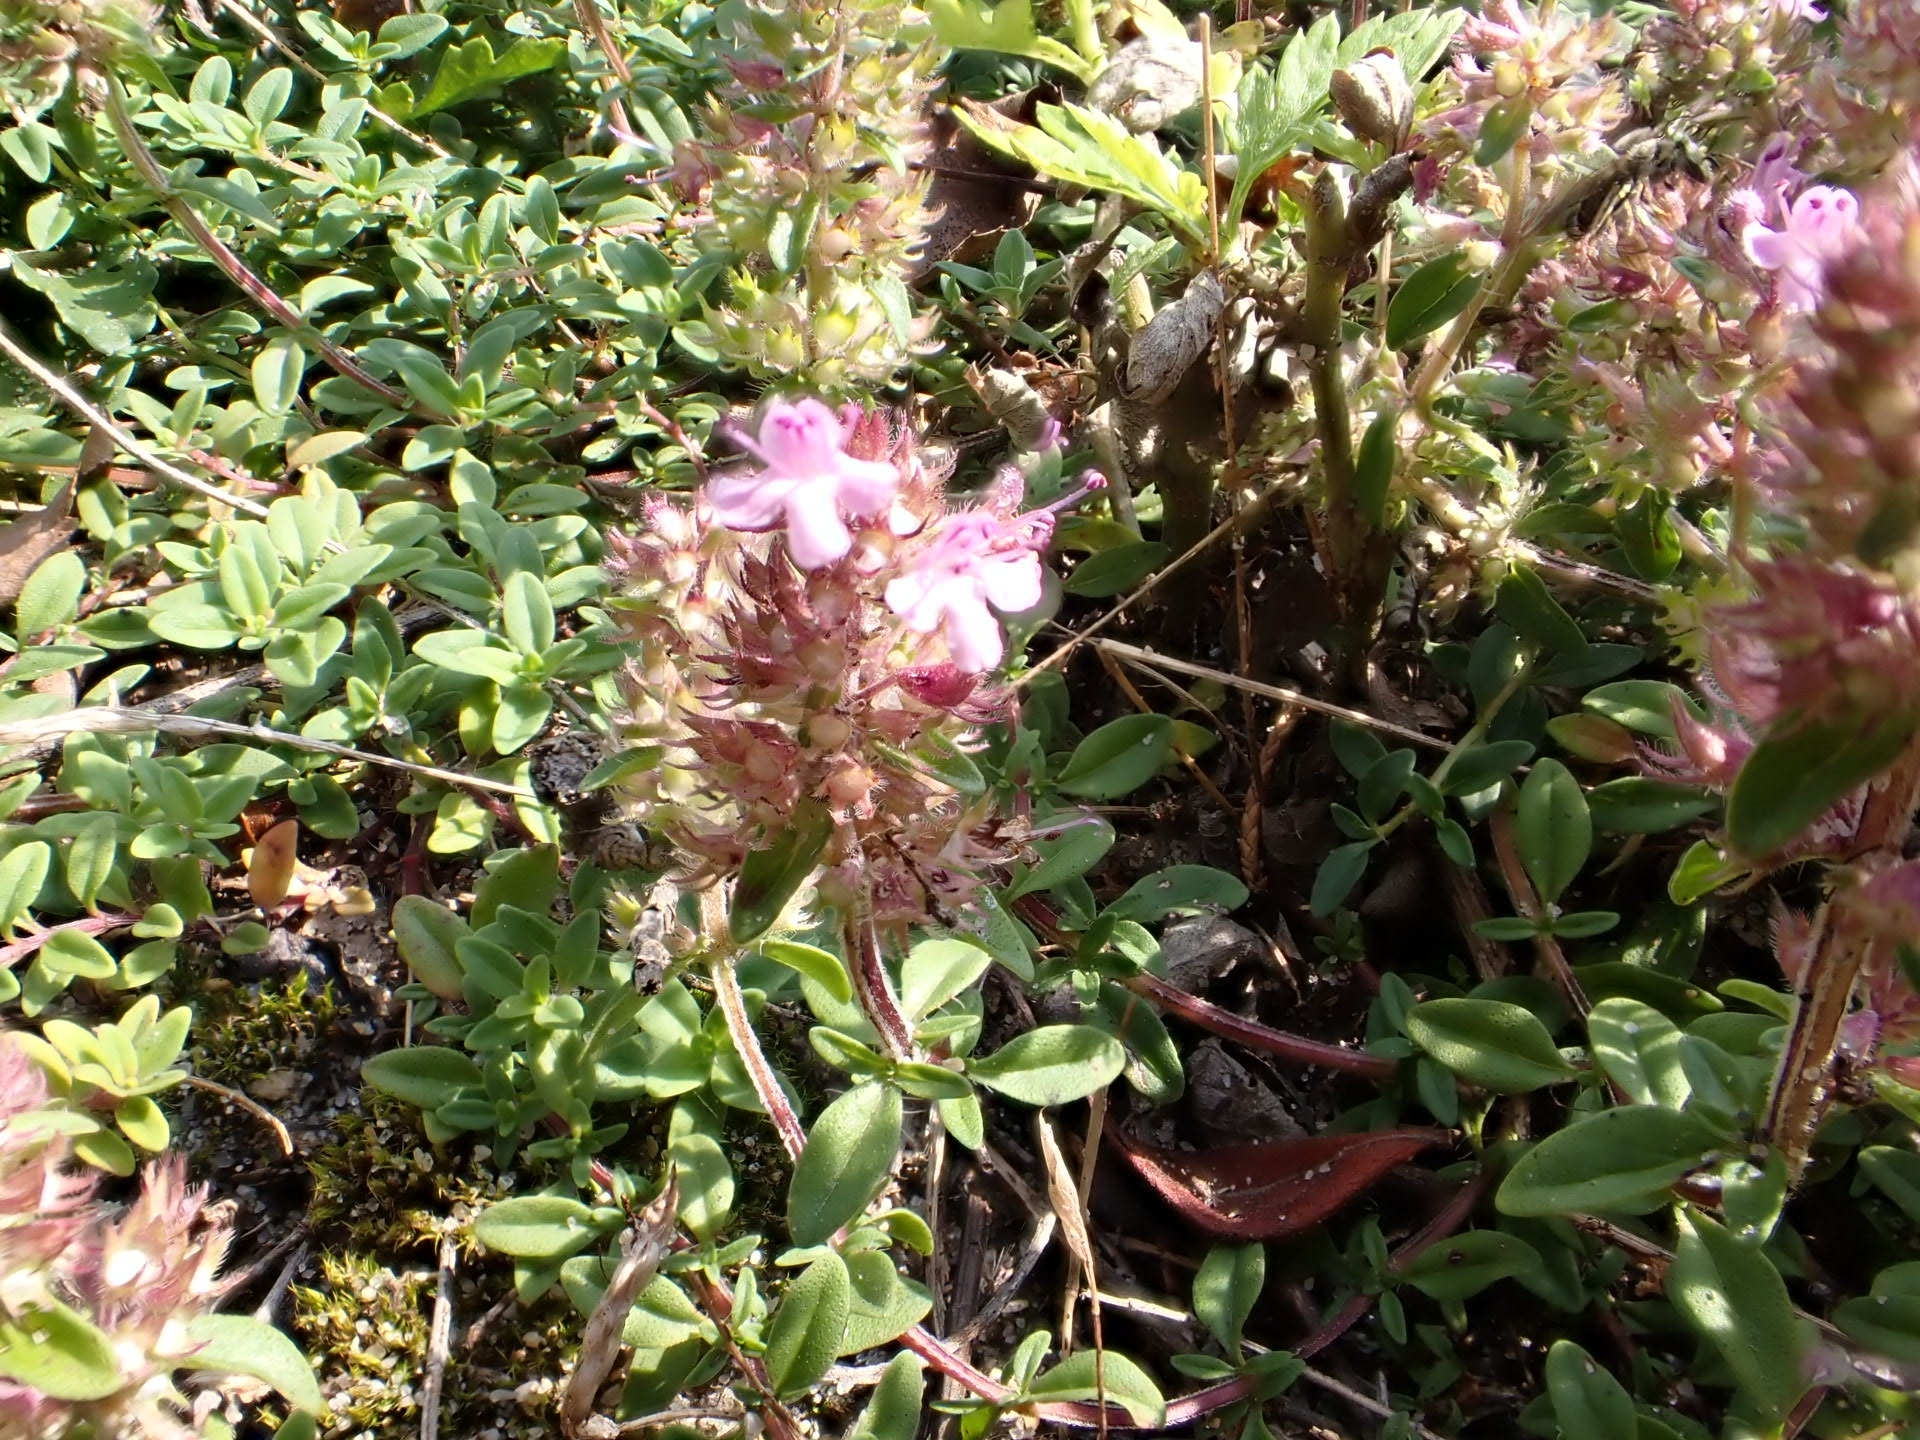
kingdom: Plantae
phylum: Tracheophyta
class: Magnoliopsida
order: Lamiales
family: Lamiaceae
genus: Thymus
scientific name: Thymus pulegioides
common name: Large thyme
